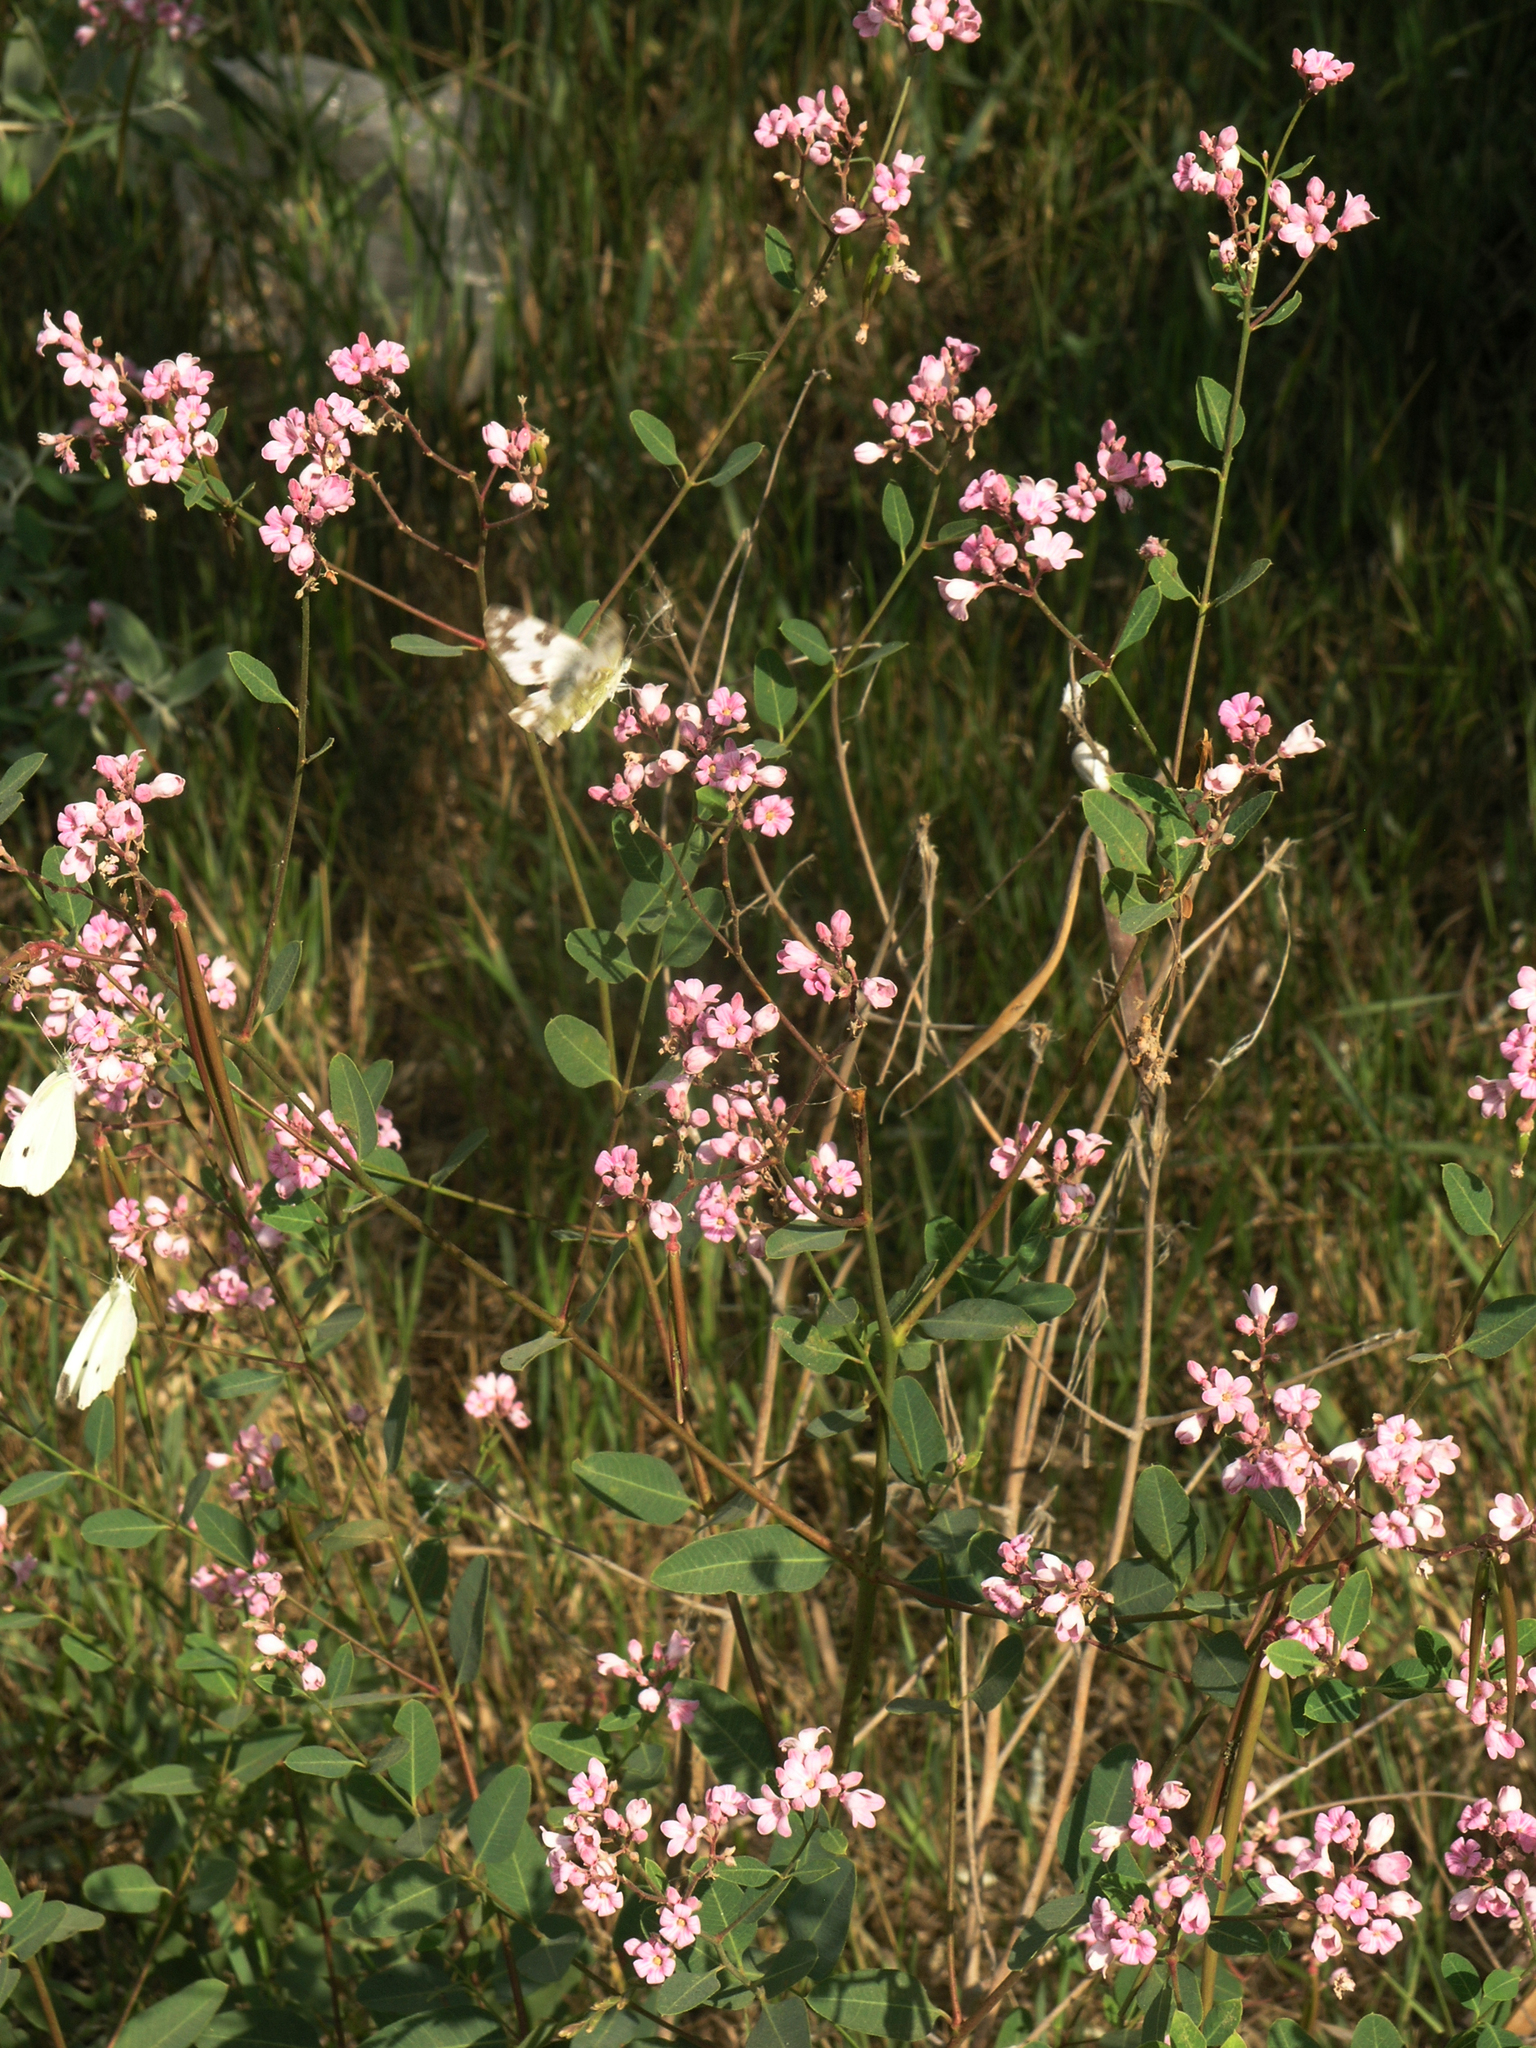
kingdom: Plantae
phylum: Tracheophyta
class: Magnoliopsida
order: Gentianales
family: Apocynaceae
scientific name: Apocynaceae
